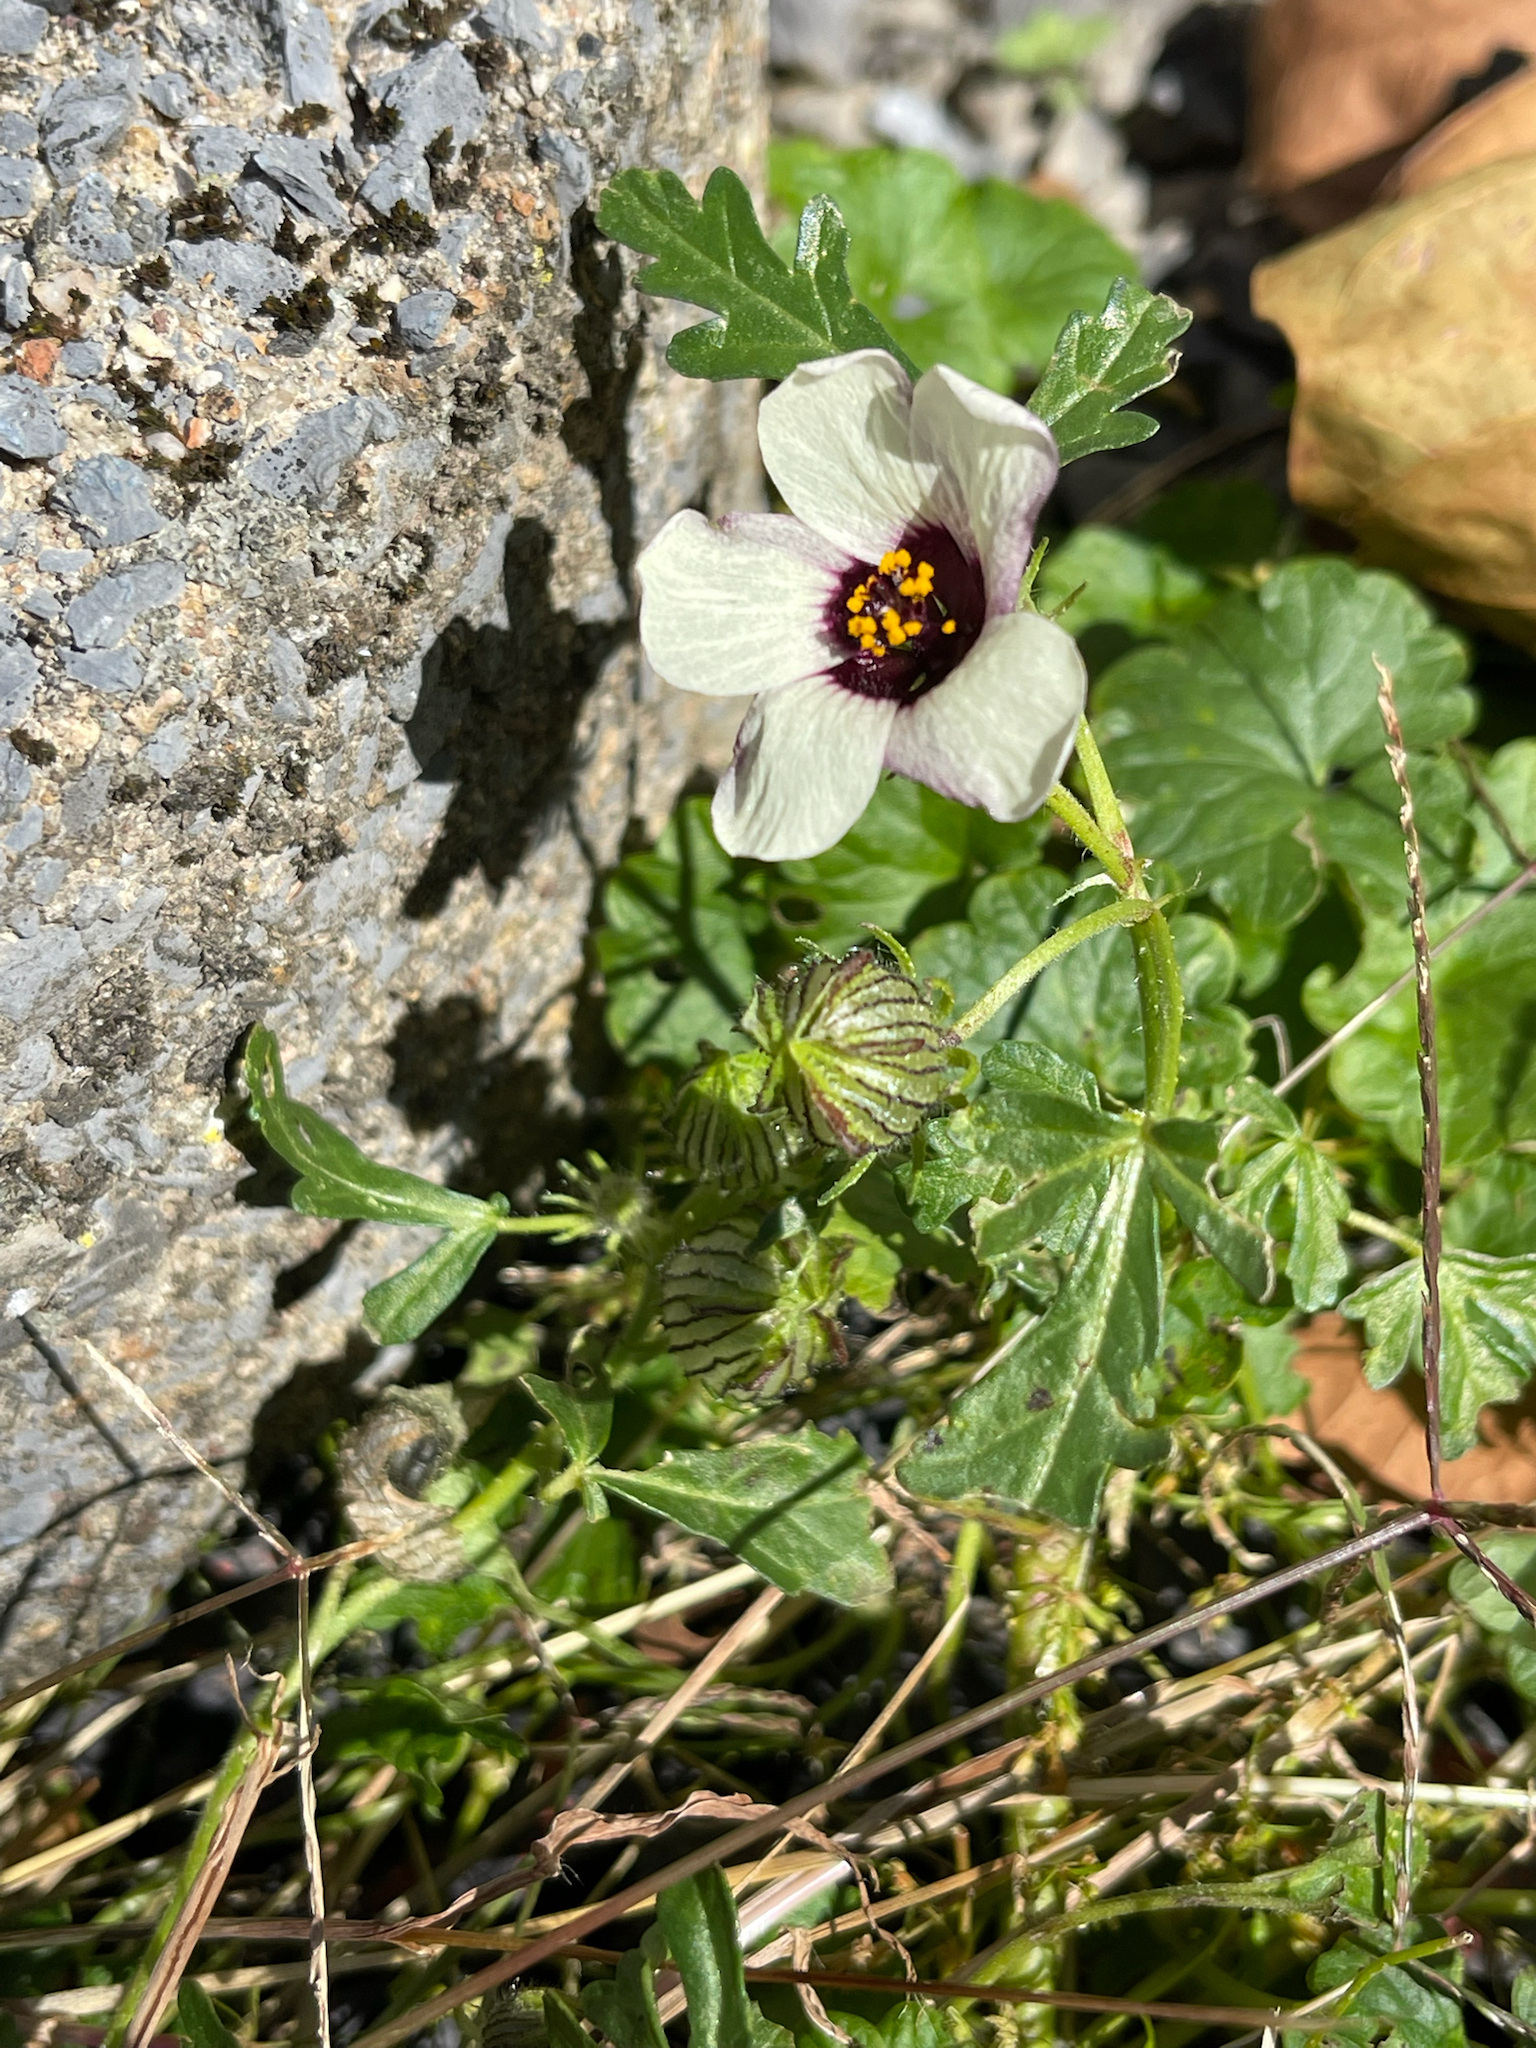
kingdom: Plantae
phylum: Tracheophyta
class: Magnoliopsida
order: Malvales
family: Malvaceae
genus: Hibiscus
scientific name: Hibiscus trionum
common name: Bladder ketmia
